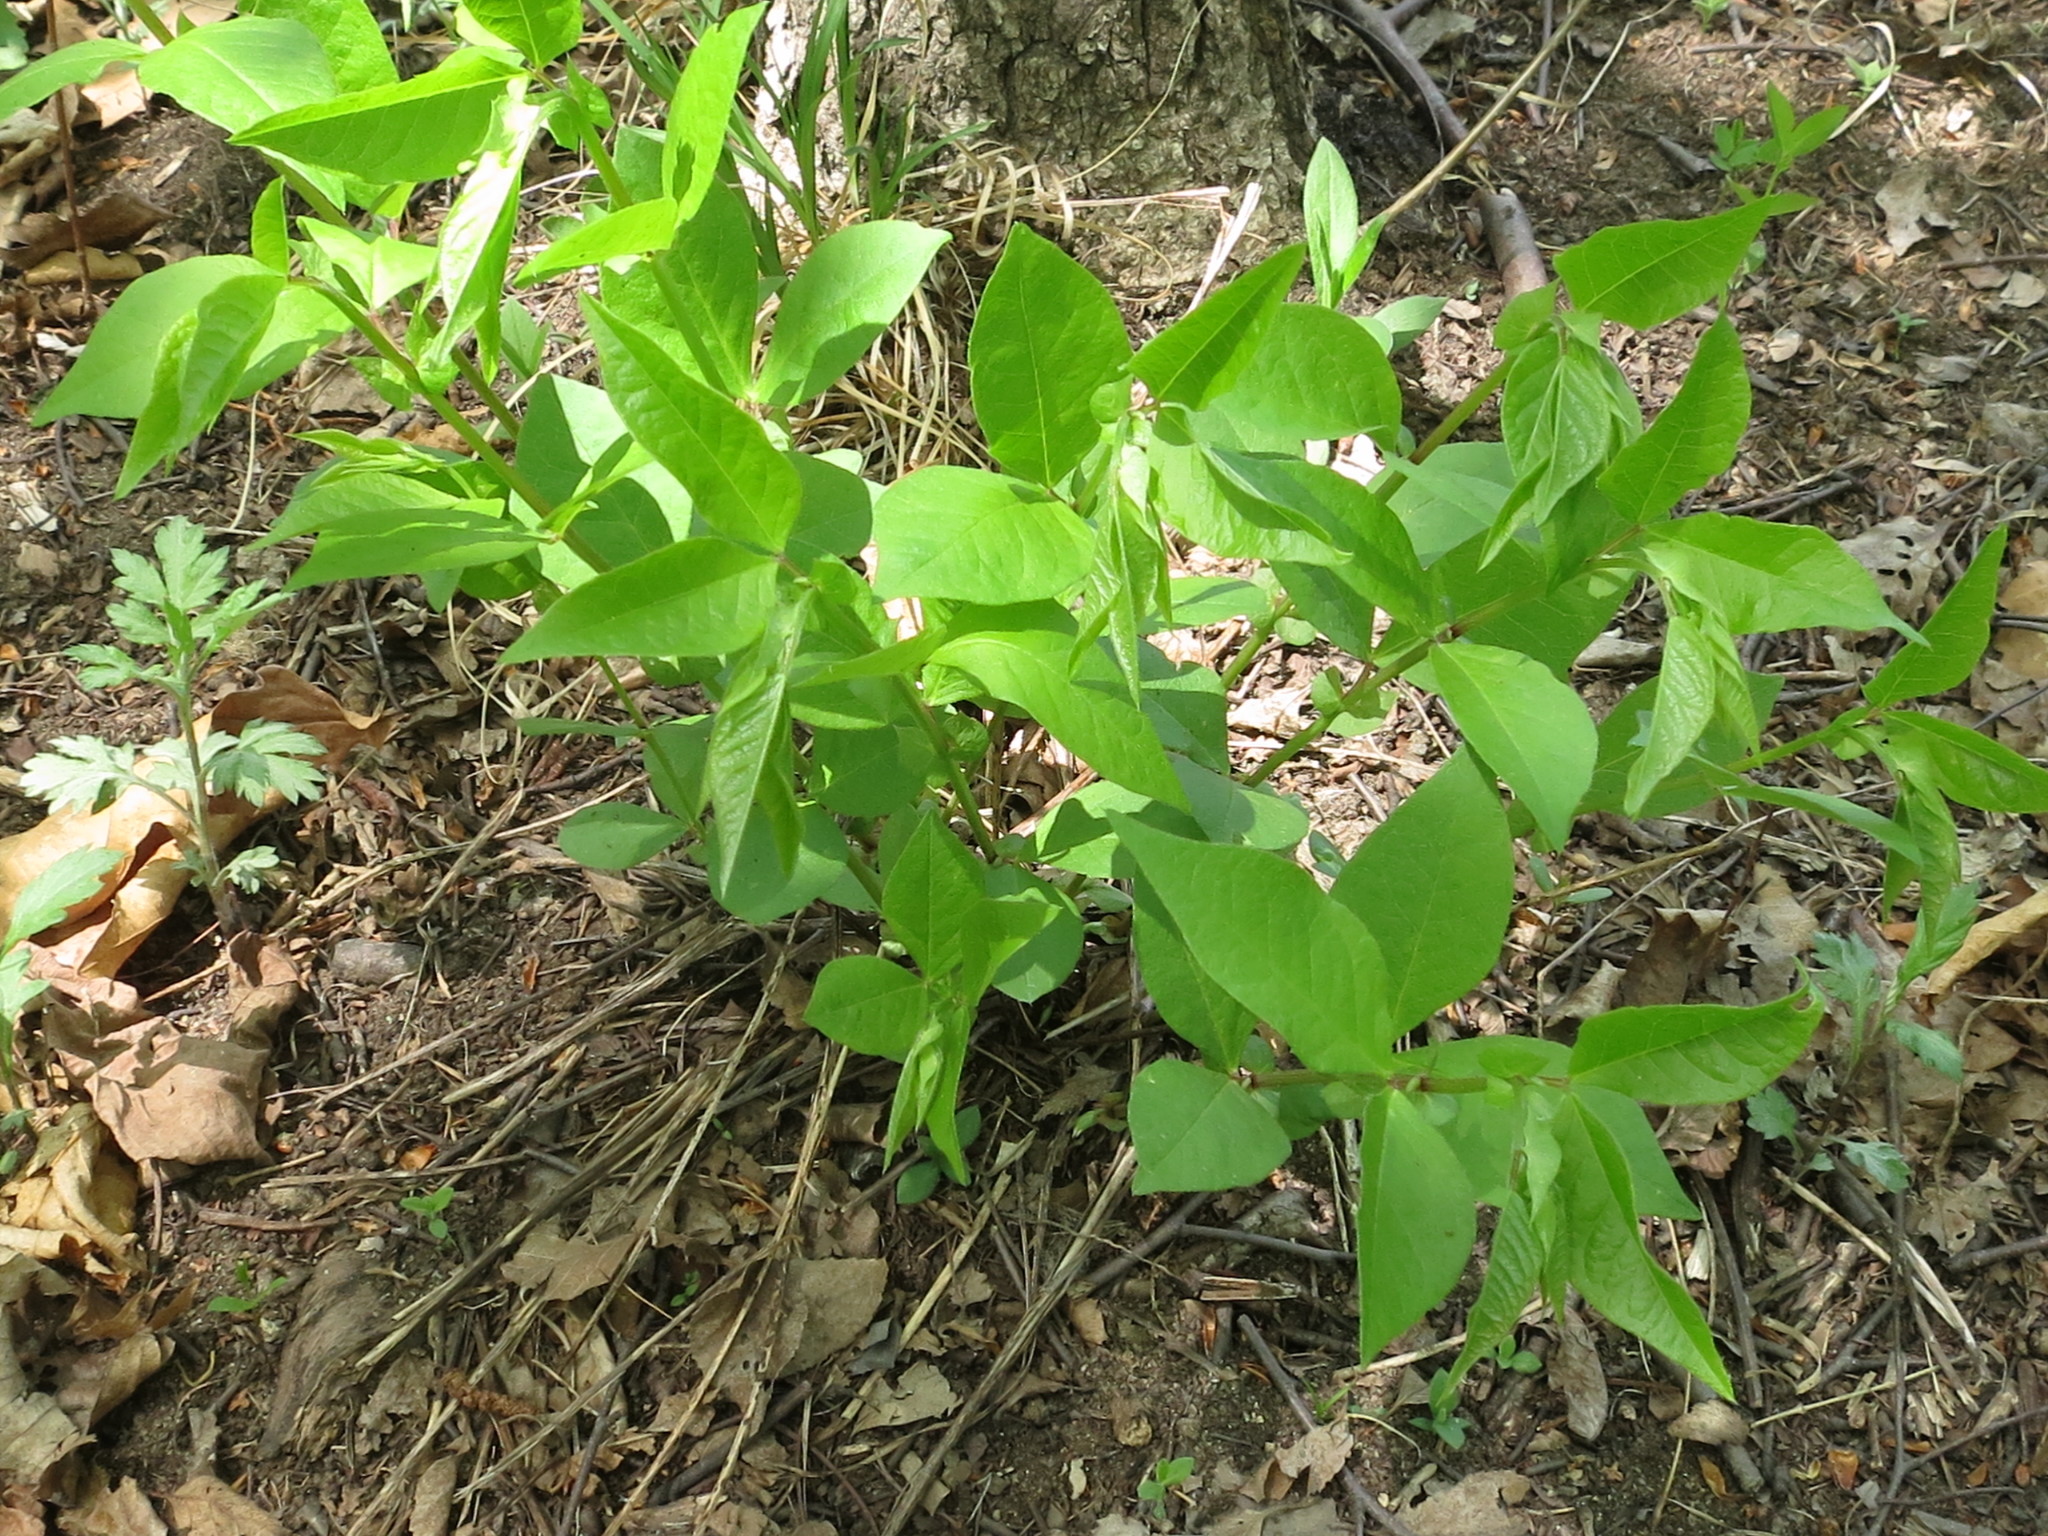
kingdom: Plantae
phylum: Tracheophyta
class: Magnoliopsida
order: Fabales
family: Fabaceae
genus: Vicia
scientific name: Vicia unijuga
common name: Two-leaf vetch
